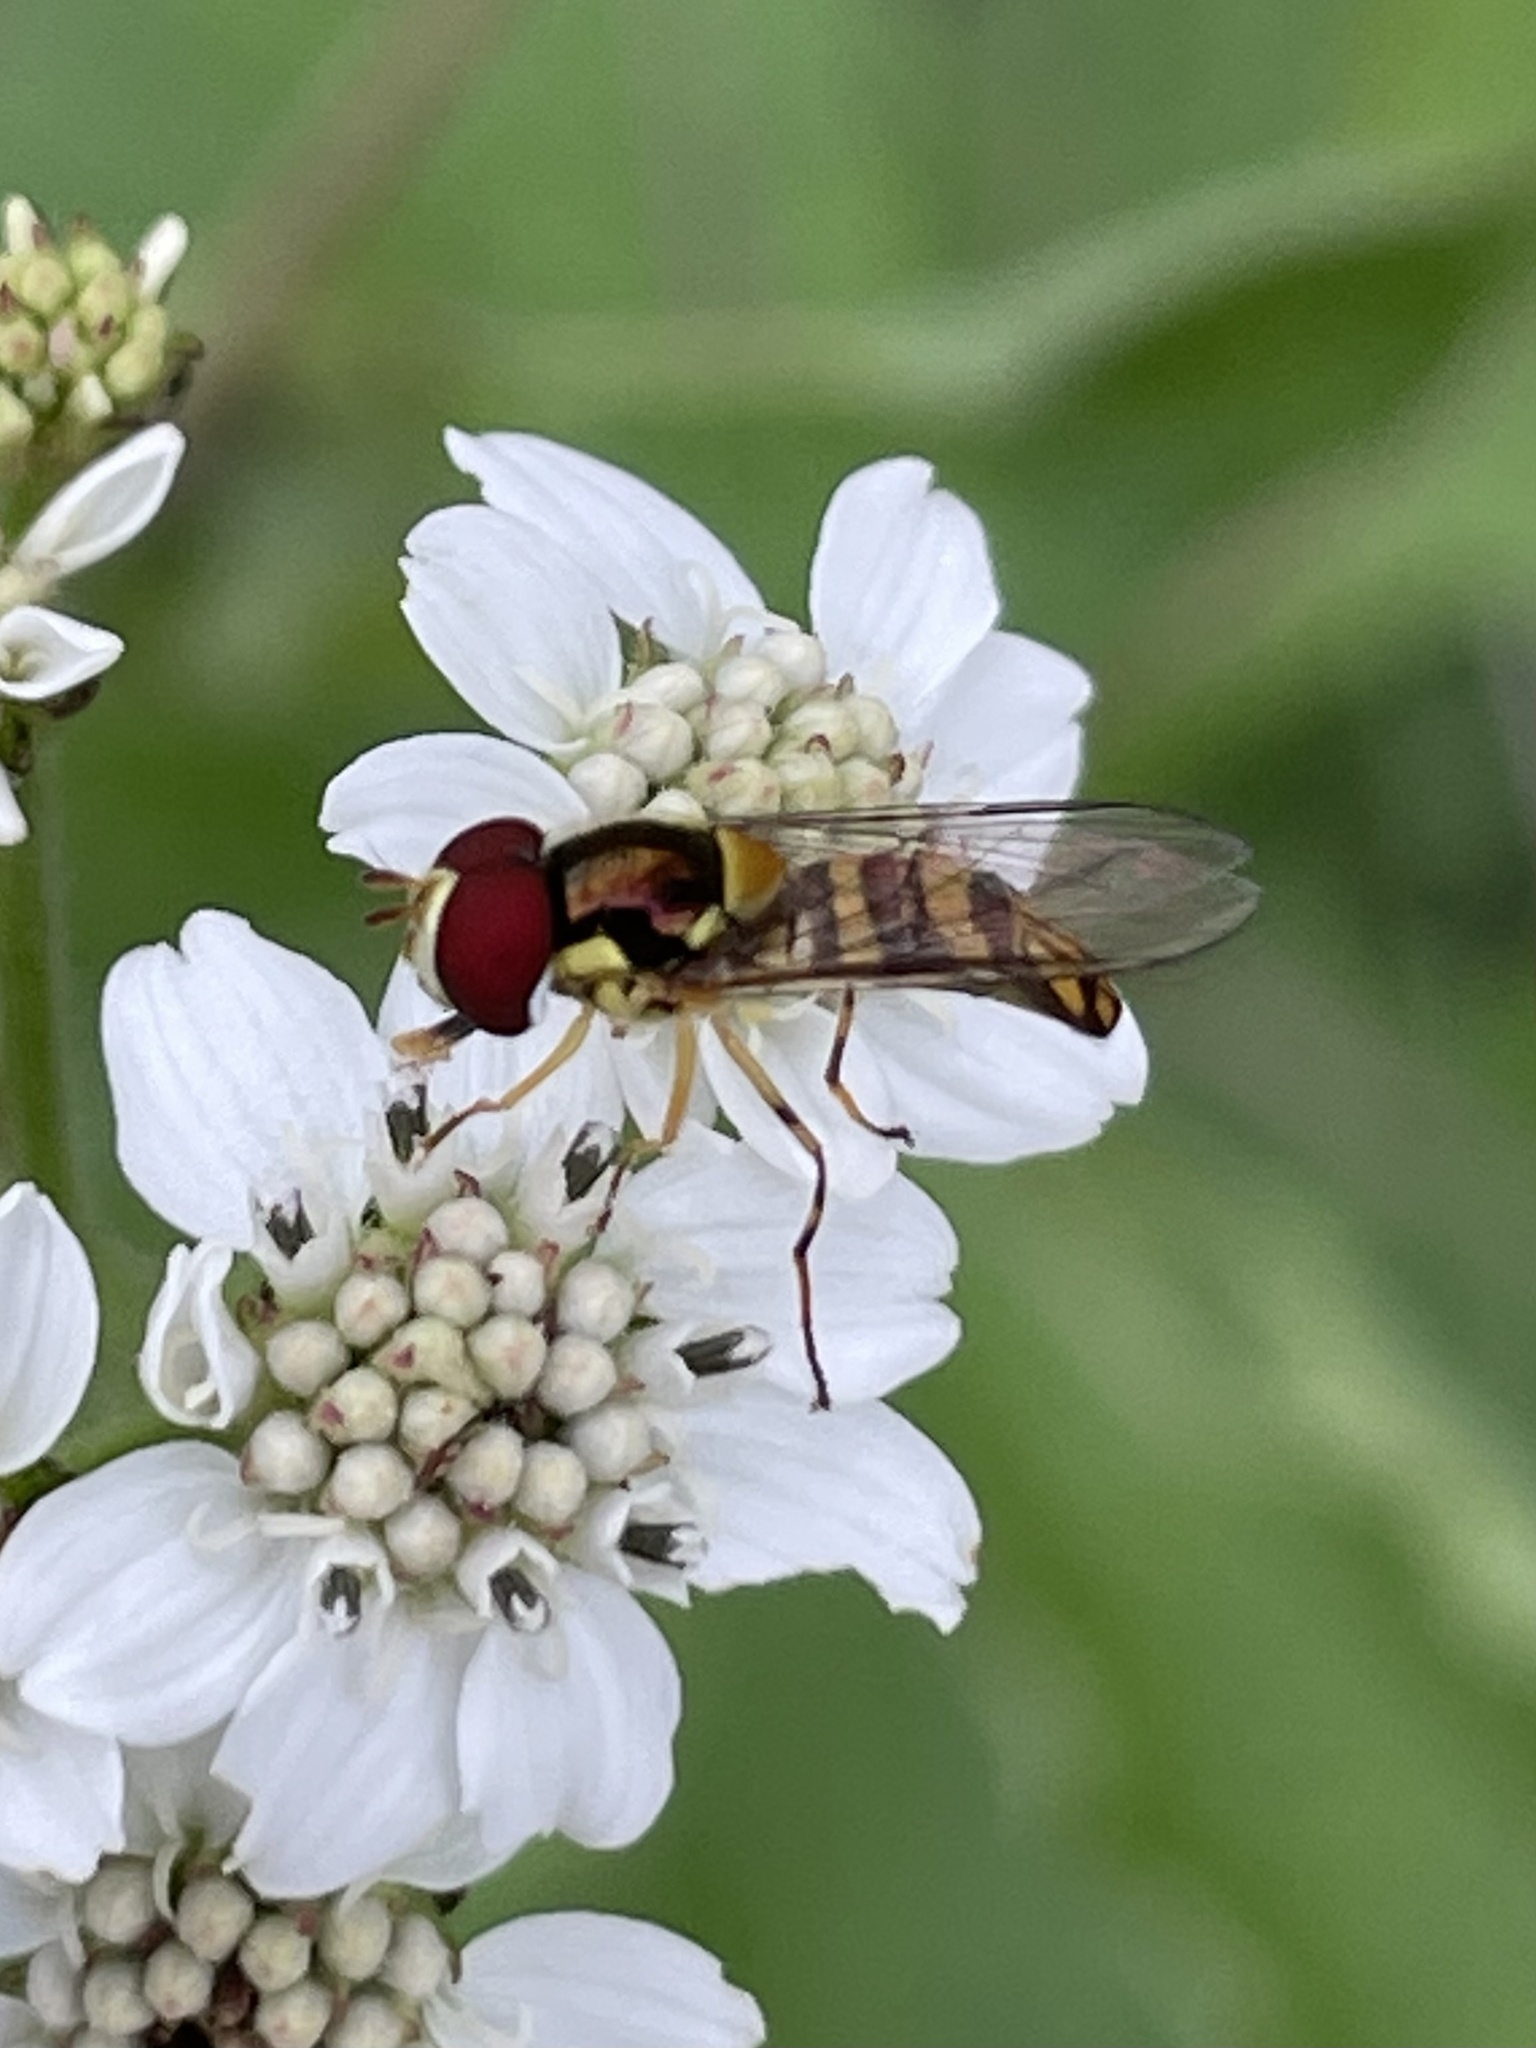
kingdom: Animalia
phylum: Arthropoda
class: Insecta
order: Diptera
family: Syrphidae
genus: Allograpta
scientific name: Allograpta obliqua
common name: Common oblique syrphid
